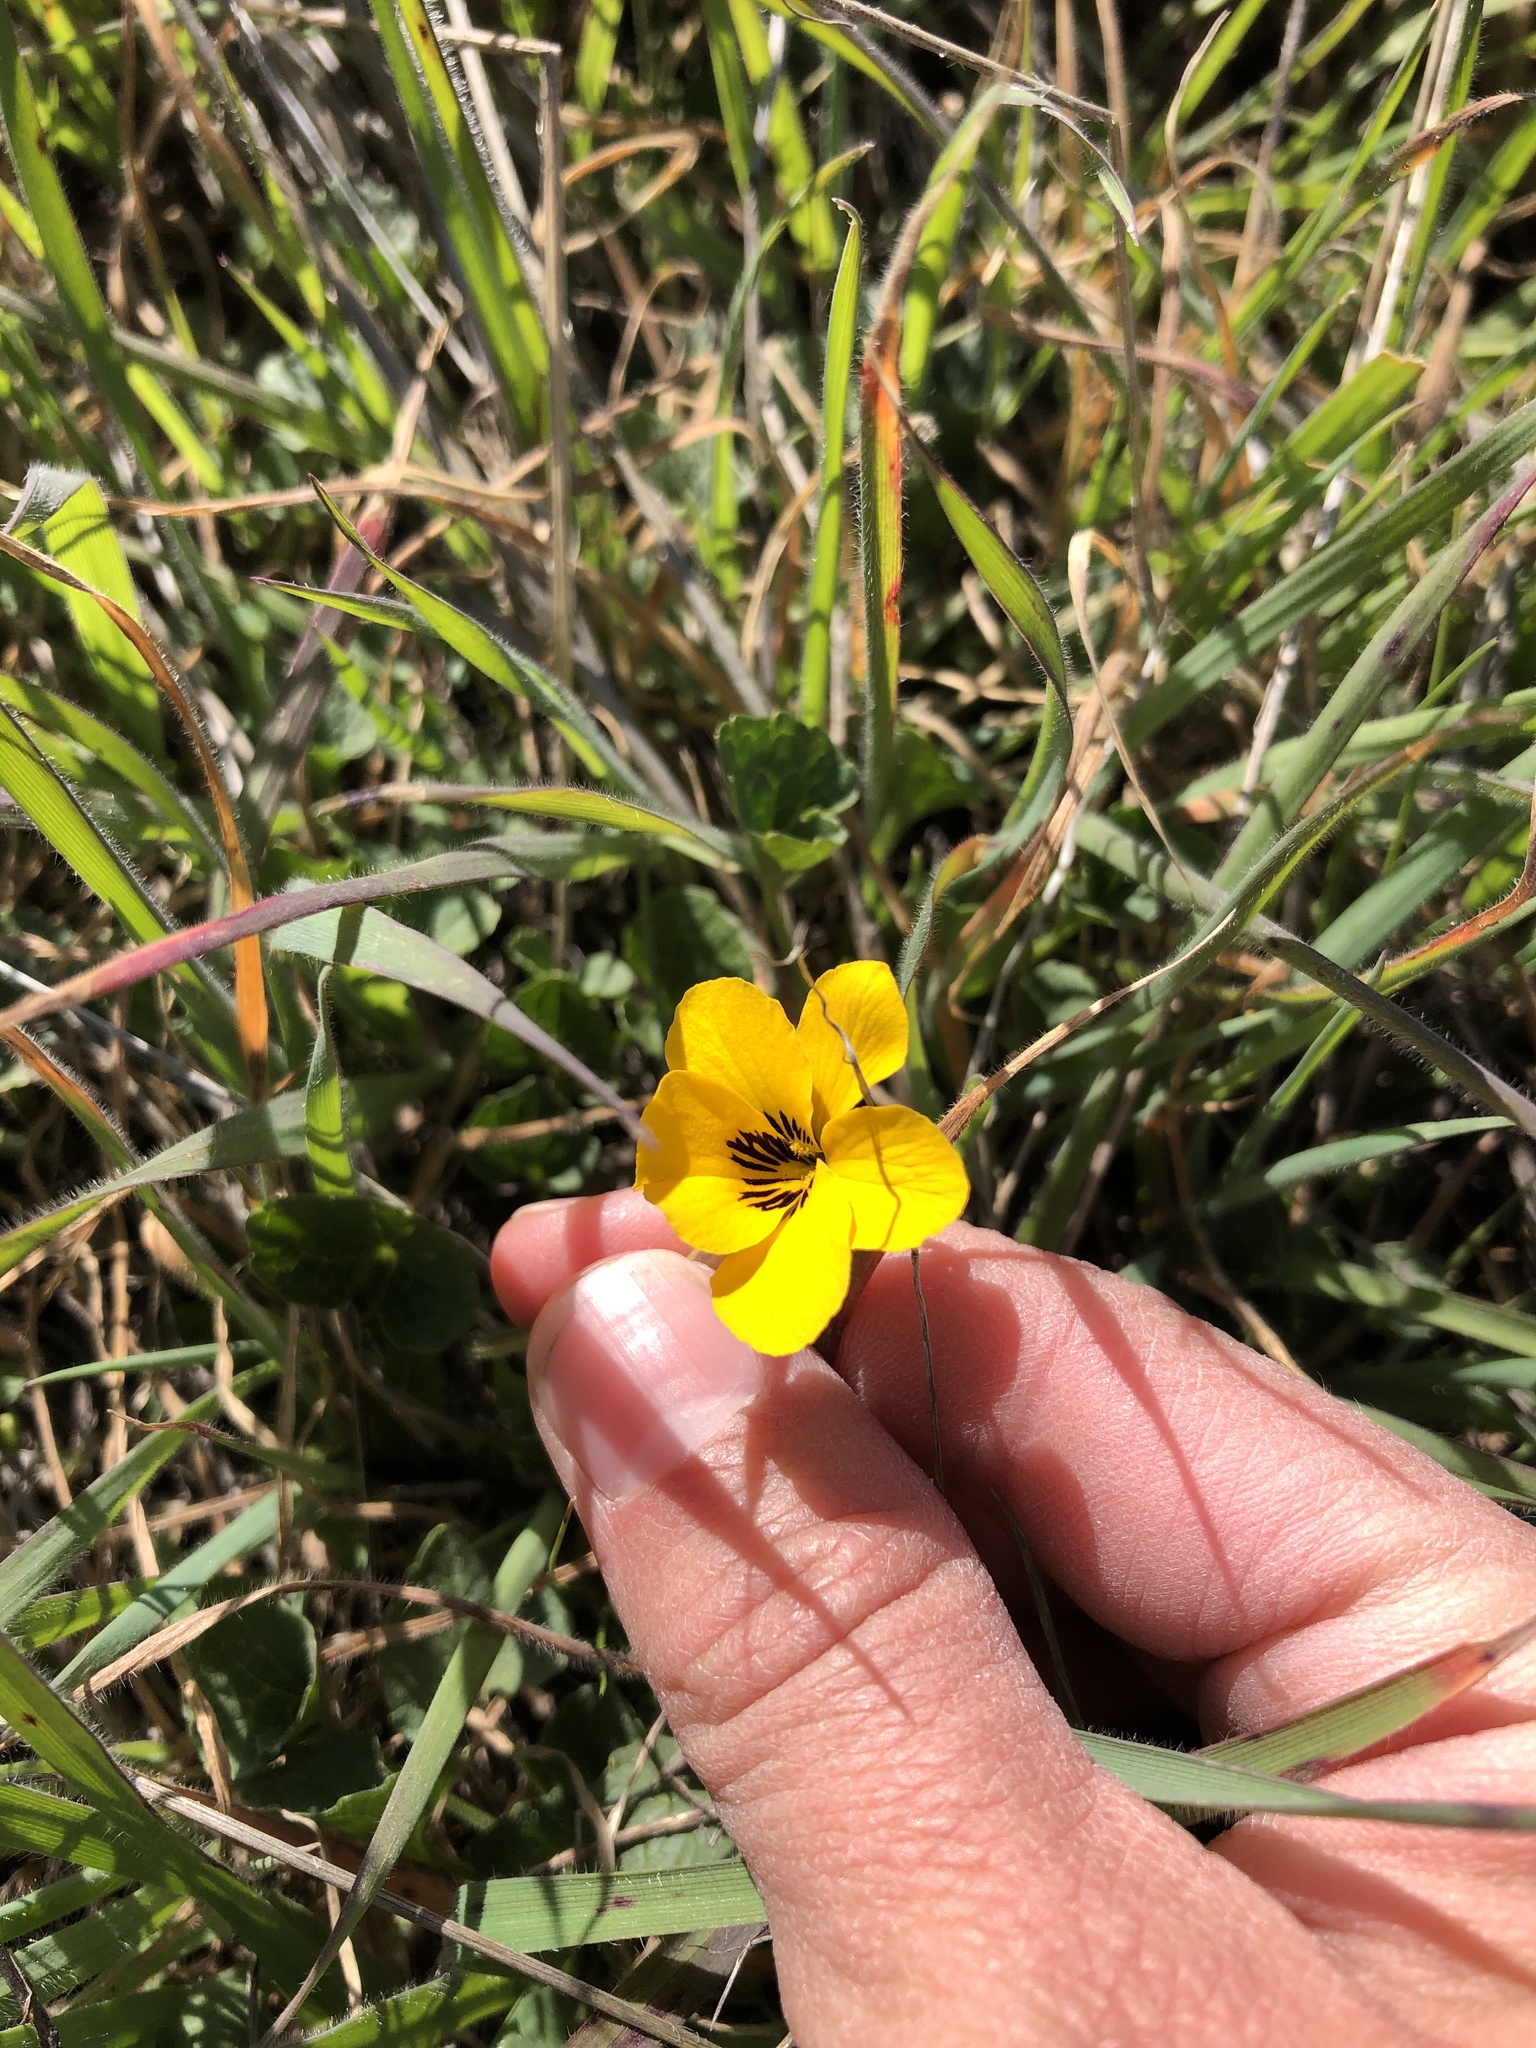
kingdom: Plantae
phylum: Tracheophyta
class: Magnoliopsida
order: Malpighiales
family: Violaceae
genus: Viola
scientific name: Viola pedunculata
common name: California golden violet
